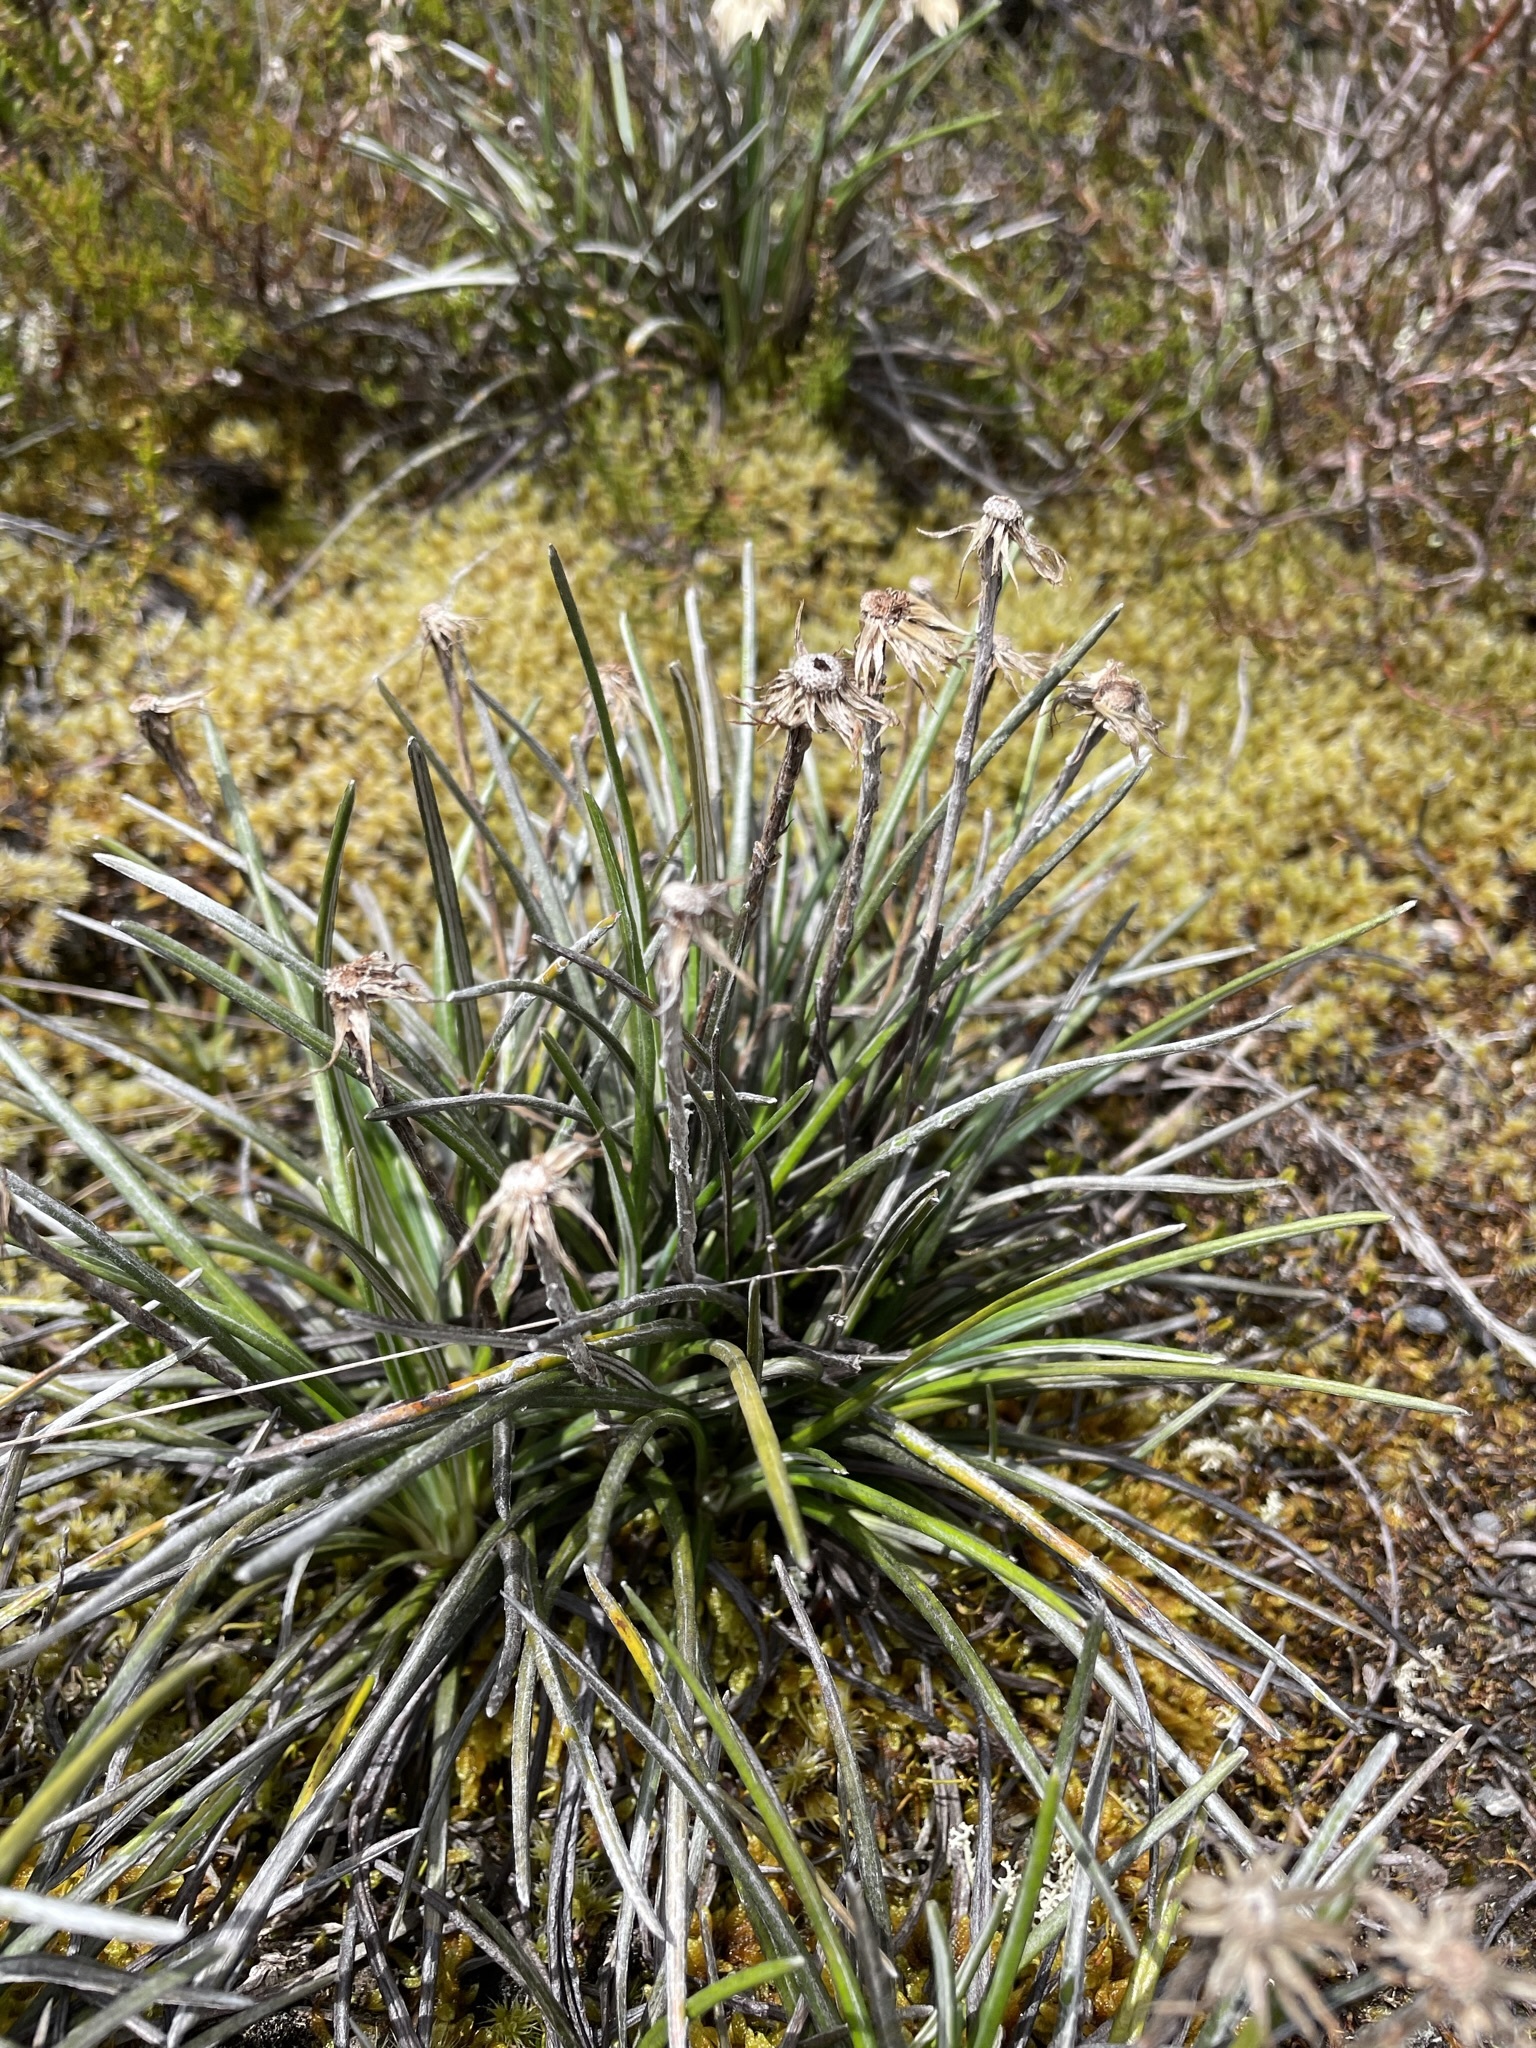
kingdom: Plantae
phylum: Tracheophyta
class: Magnoliopsida
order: Asterales
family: Asteraceae
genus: Celmisia
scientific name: Celmisia gracilenta
